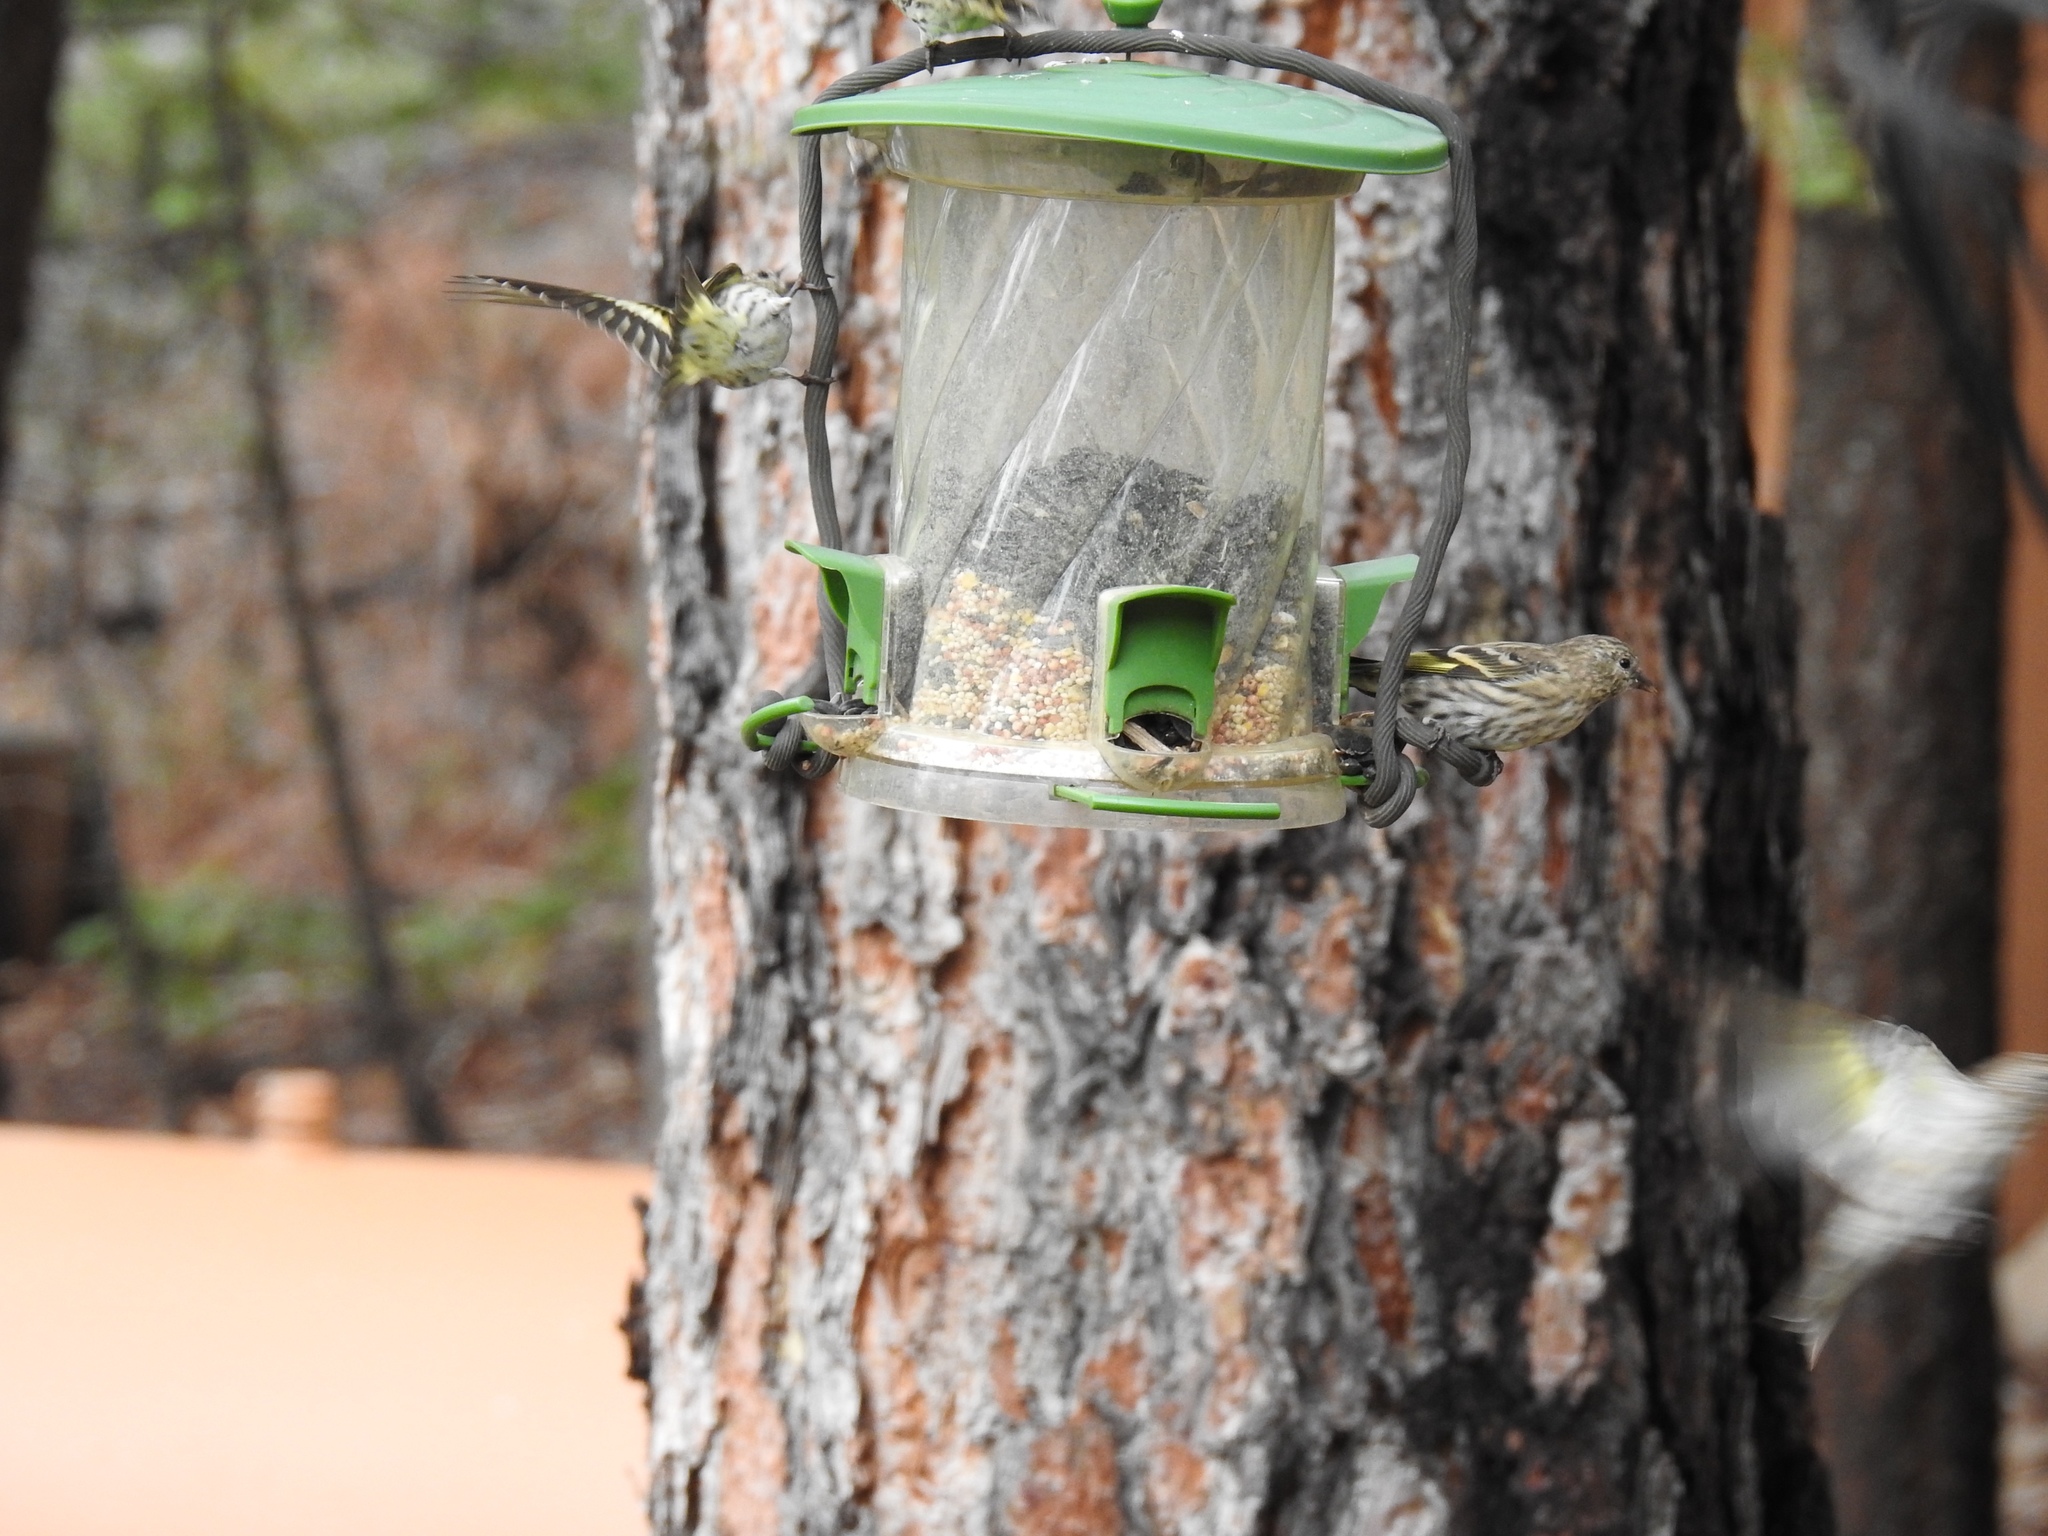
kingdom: Animalia
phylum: Chordata
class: Aves
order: Passeriformes
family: Fringillidae
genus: Spinus
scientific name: Spinus pinus
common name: Pine siskin
